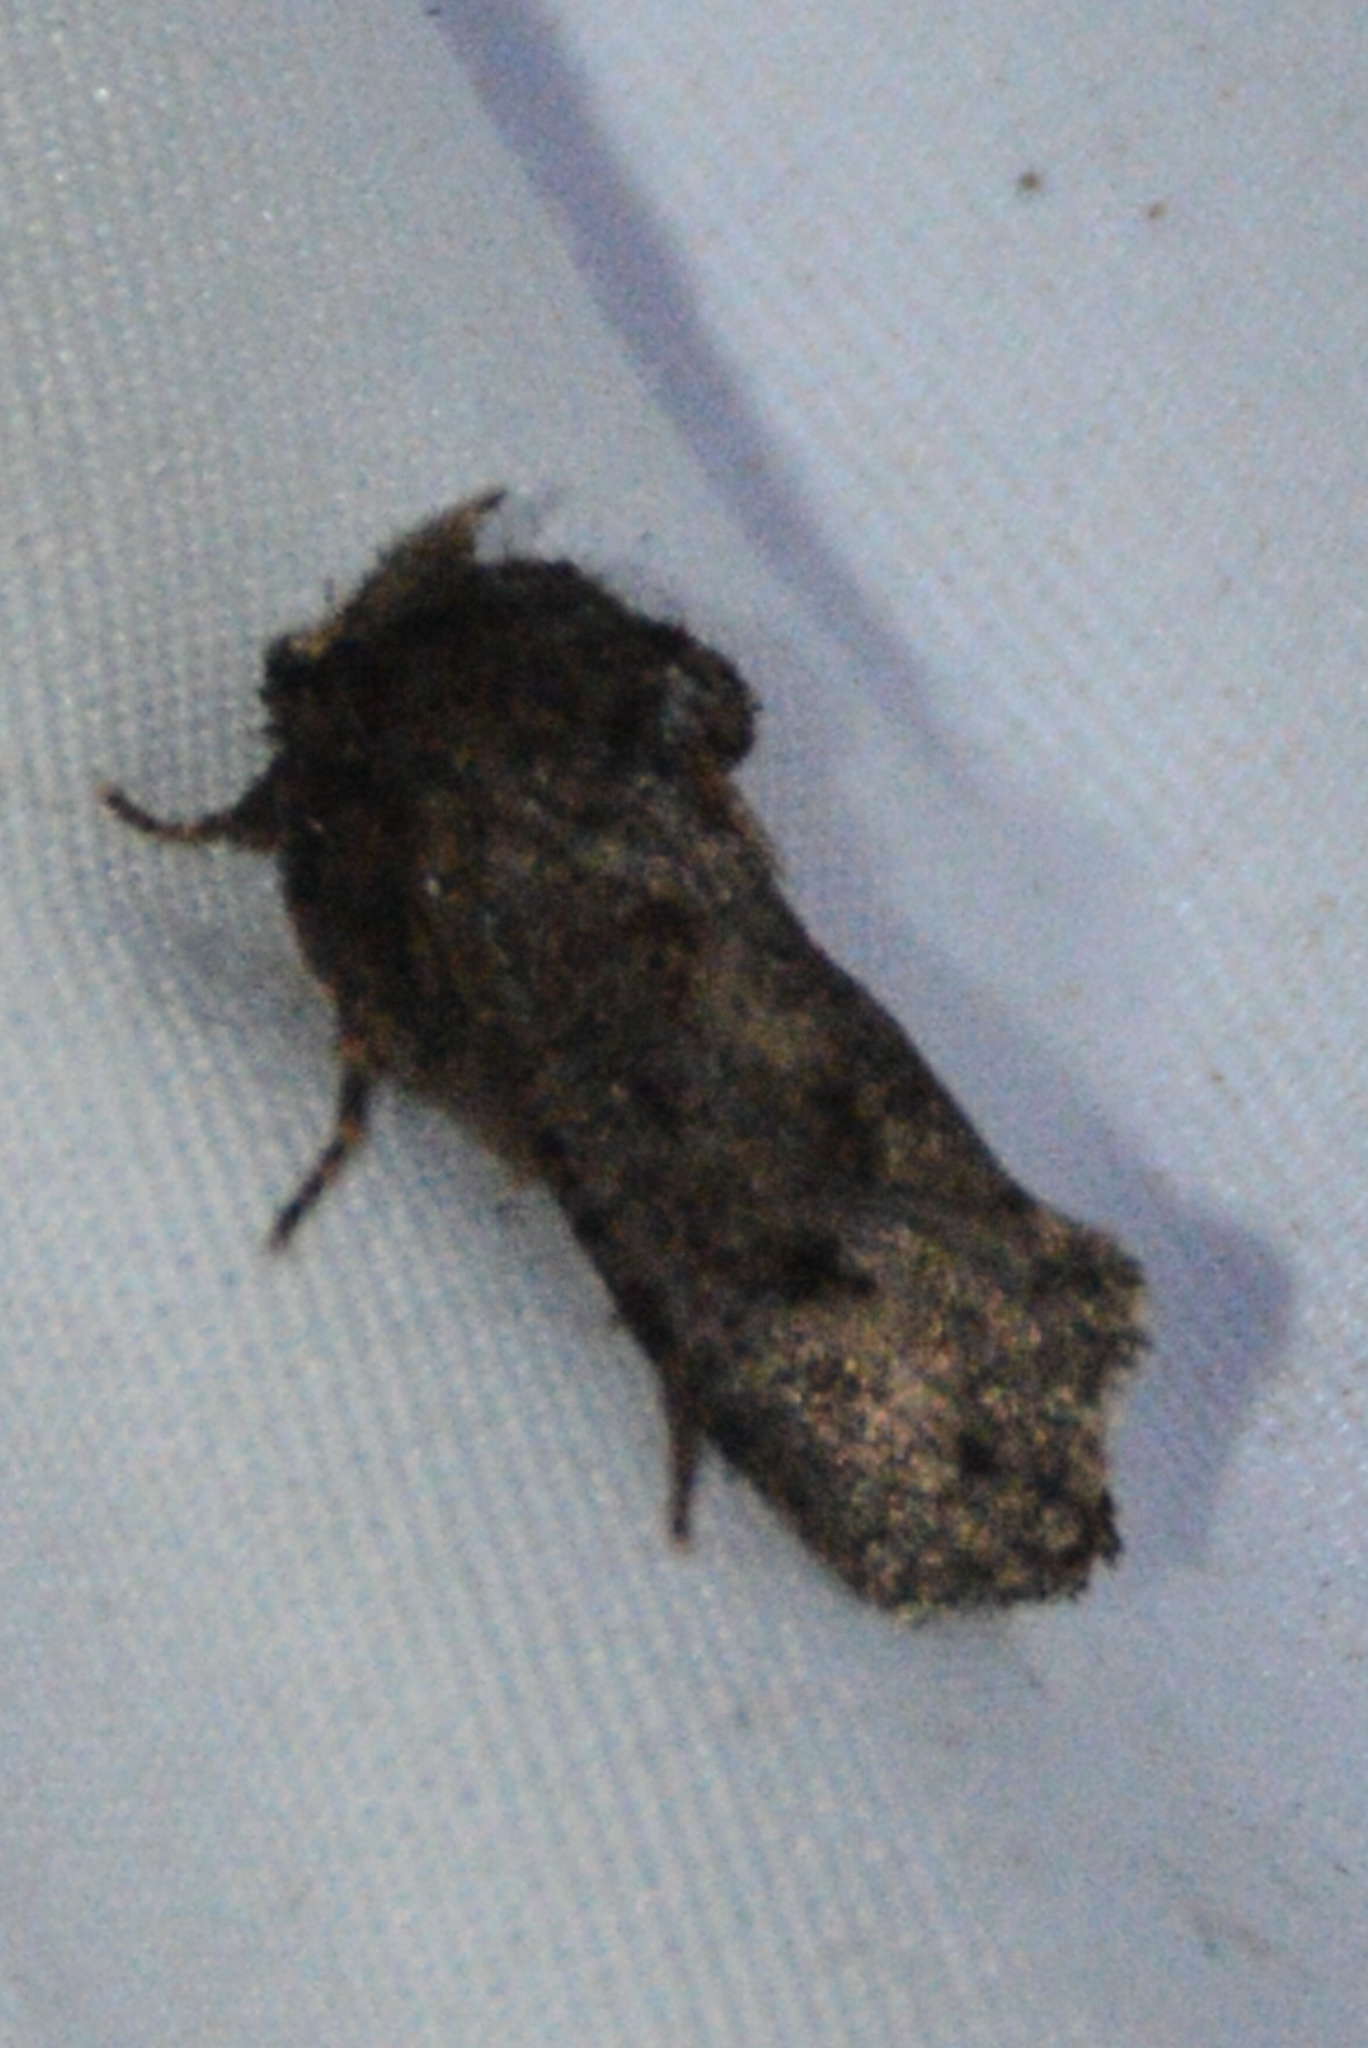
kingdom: Animalia
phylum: Arthropoda
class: Insecta
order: Lepidoptera
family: Tineidae
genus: Acrolophus
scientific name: Acrolophus arcanella
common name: Arcane grass tubeworm moth
